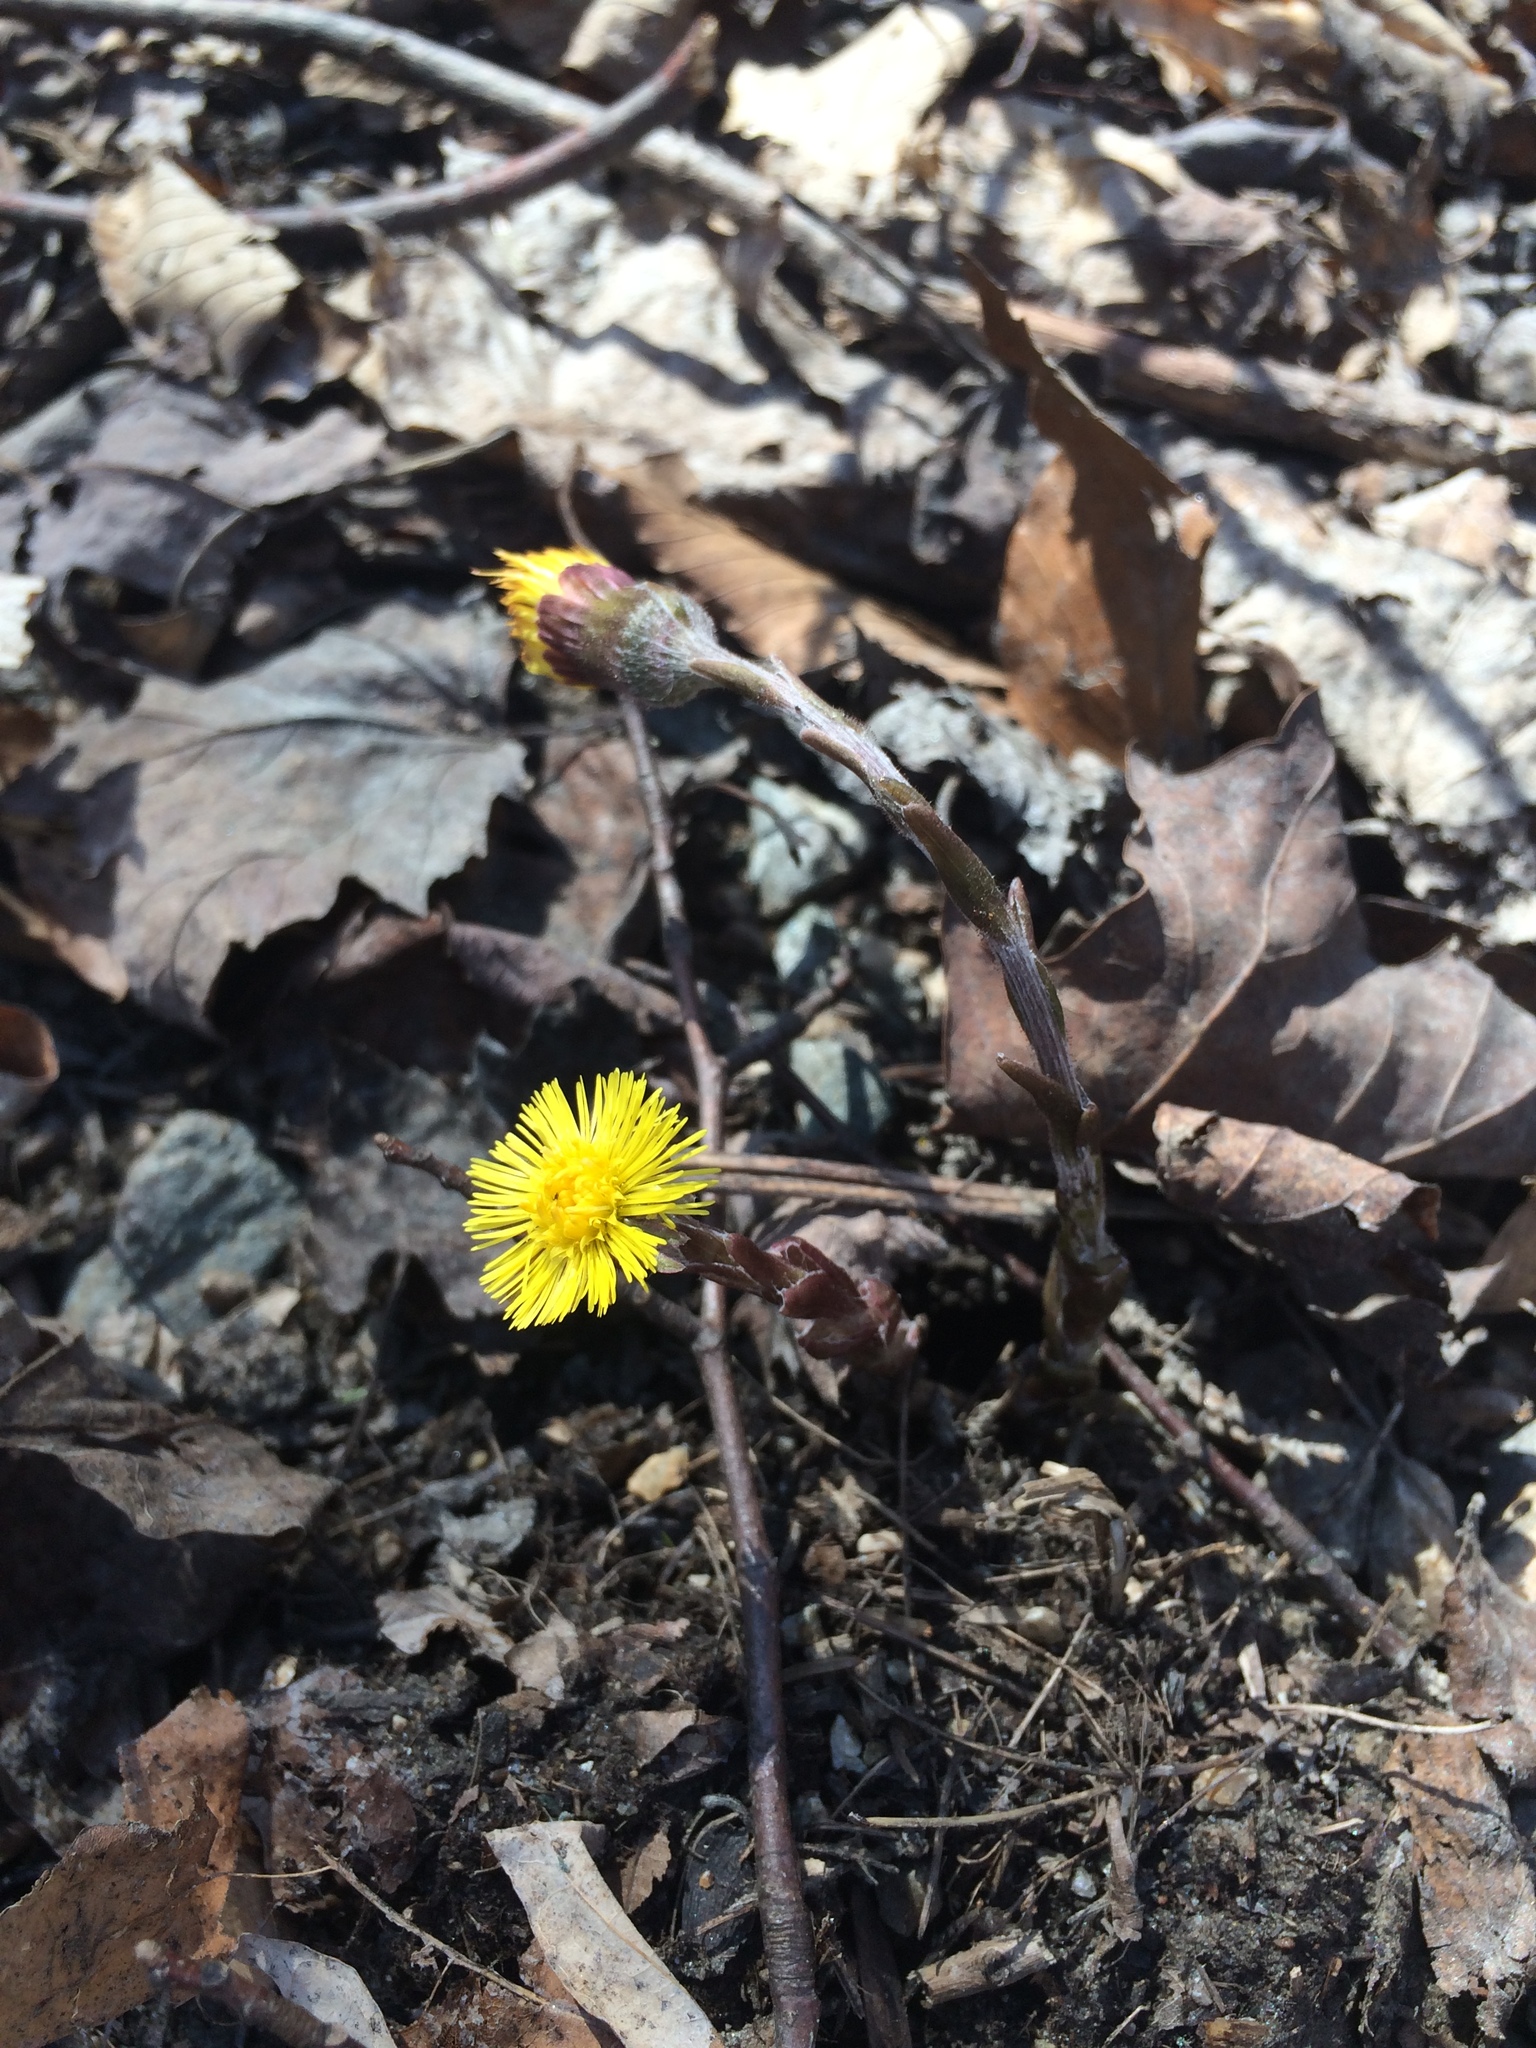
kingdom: Plantae
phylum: Tracheophyta
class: Magnoliopsida
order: Asterales
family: Asteraceae
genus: Tussilago
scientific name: Tussilago farfara
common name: Coltsfoot
